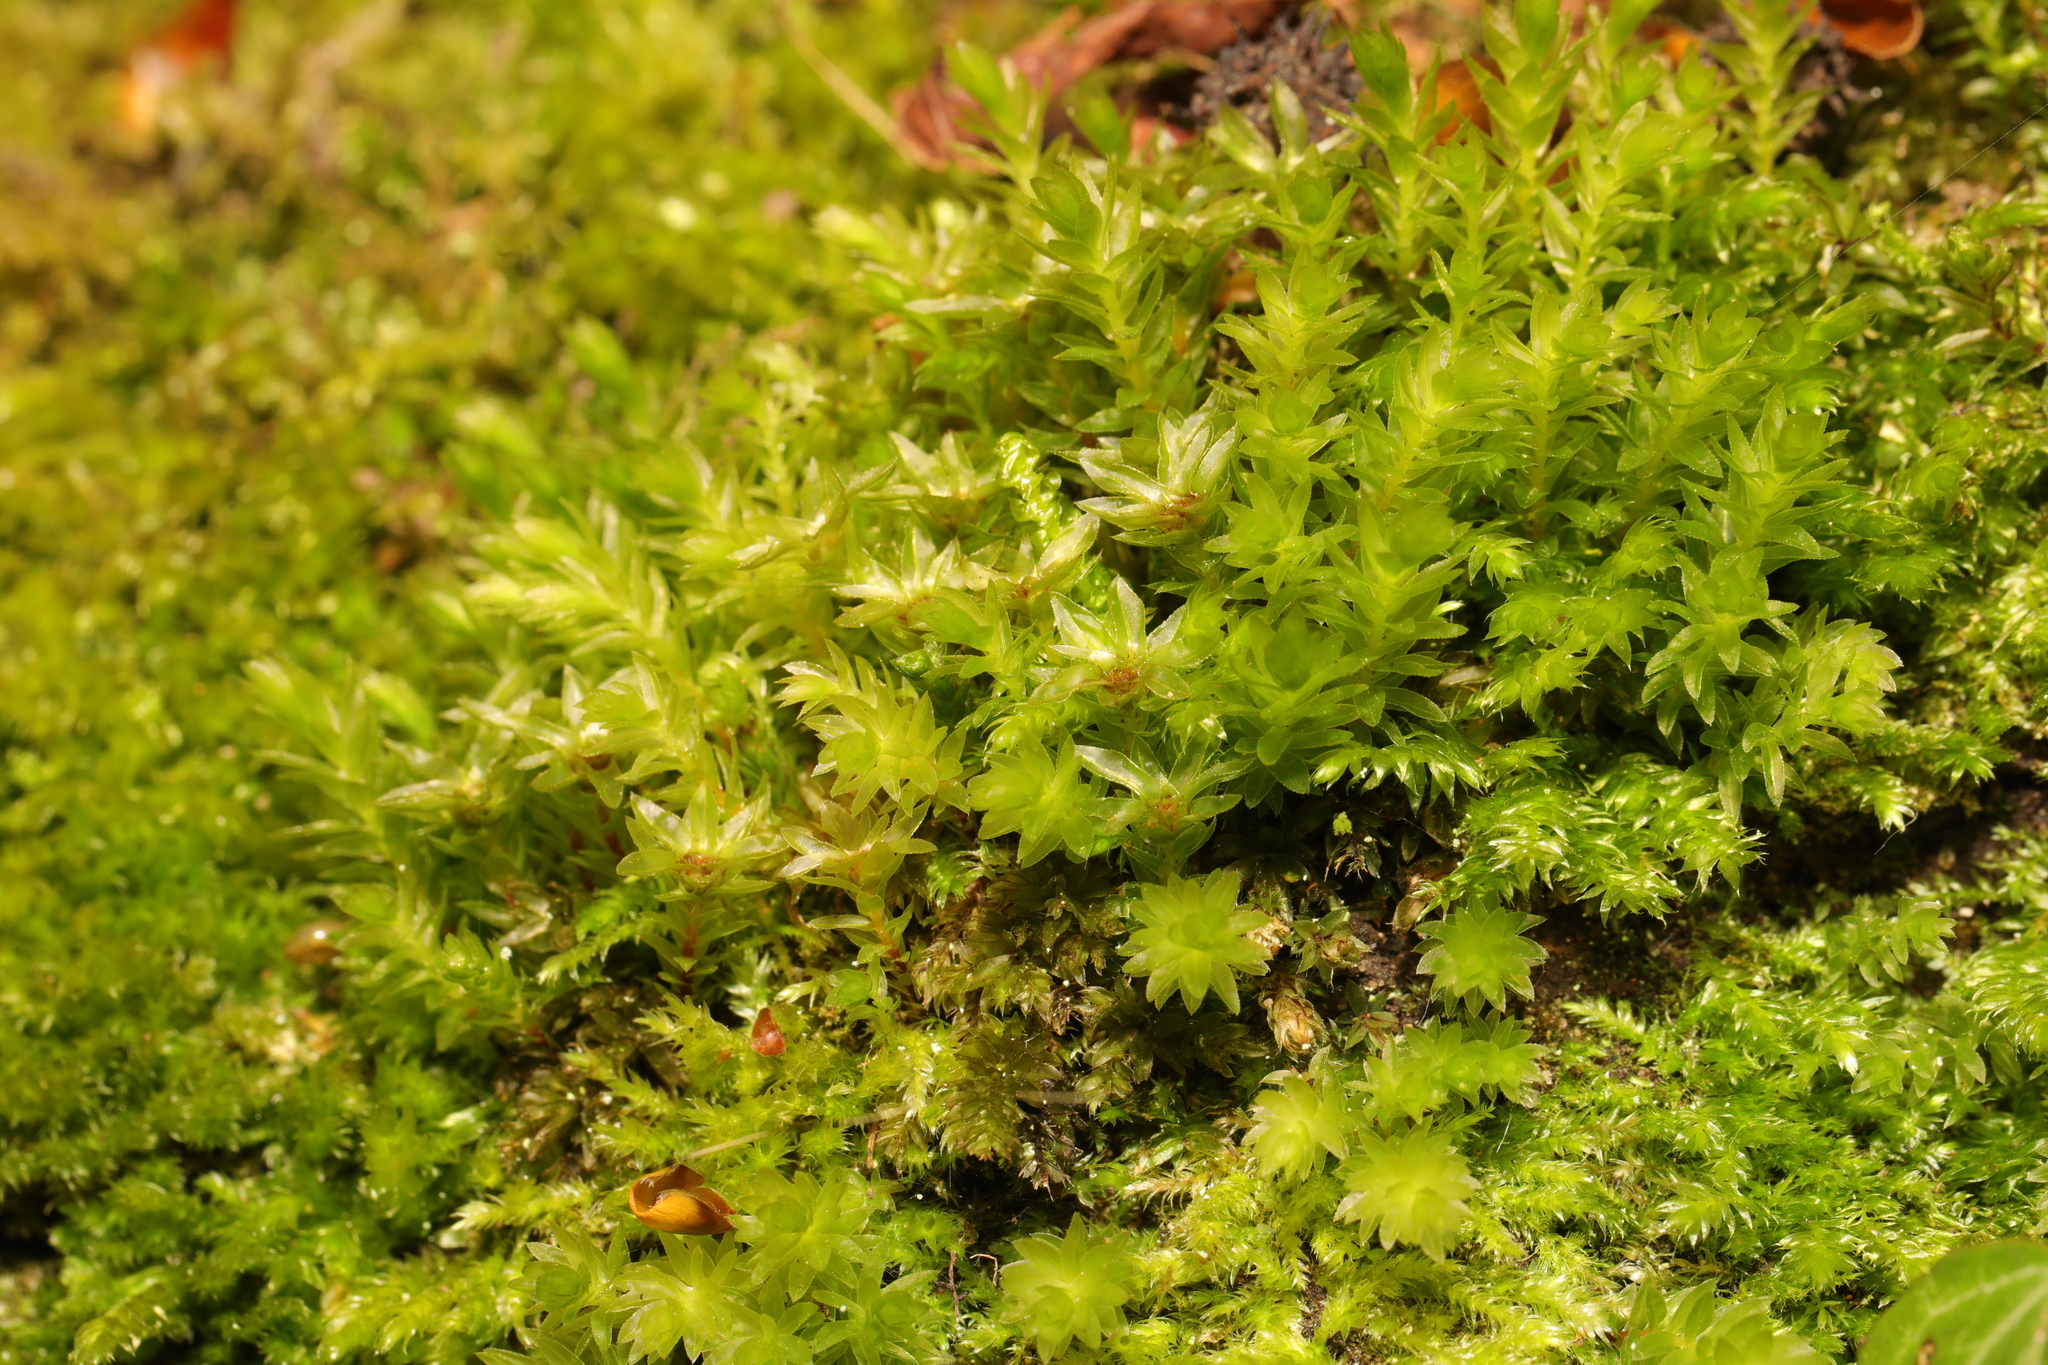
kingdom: Plantae
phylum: Bryophyta
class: Bryopsida
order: Bryales
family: Mniaceae
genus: Mnium
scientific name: Mnium hornum
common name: Swan's-neck leafy moss
